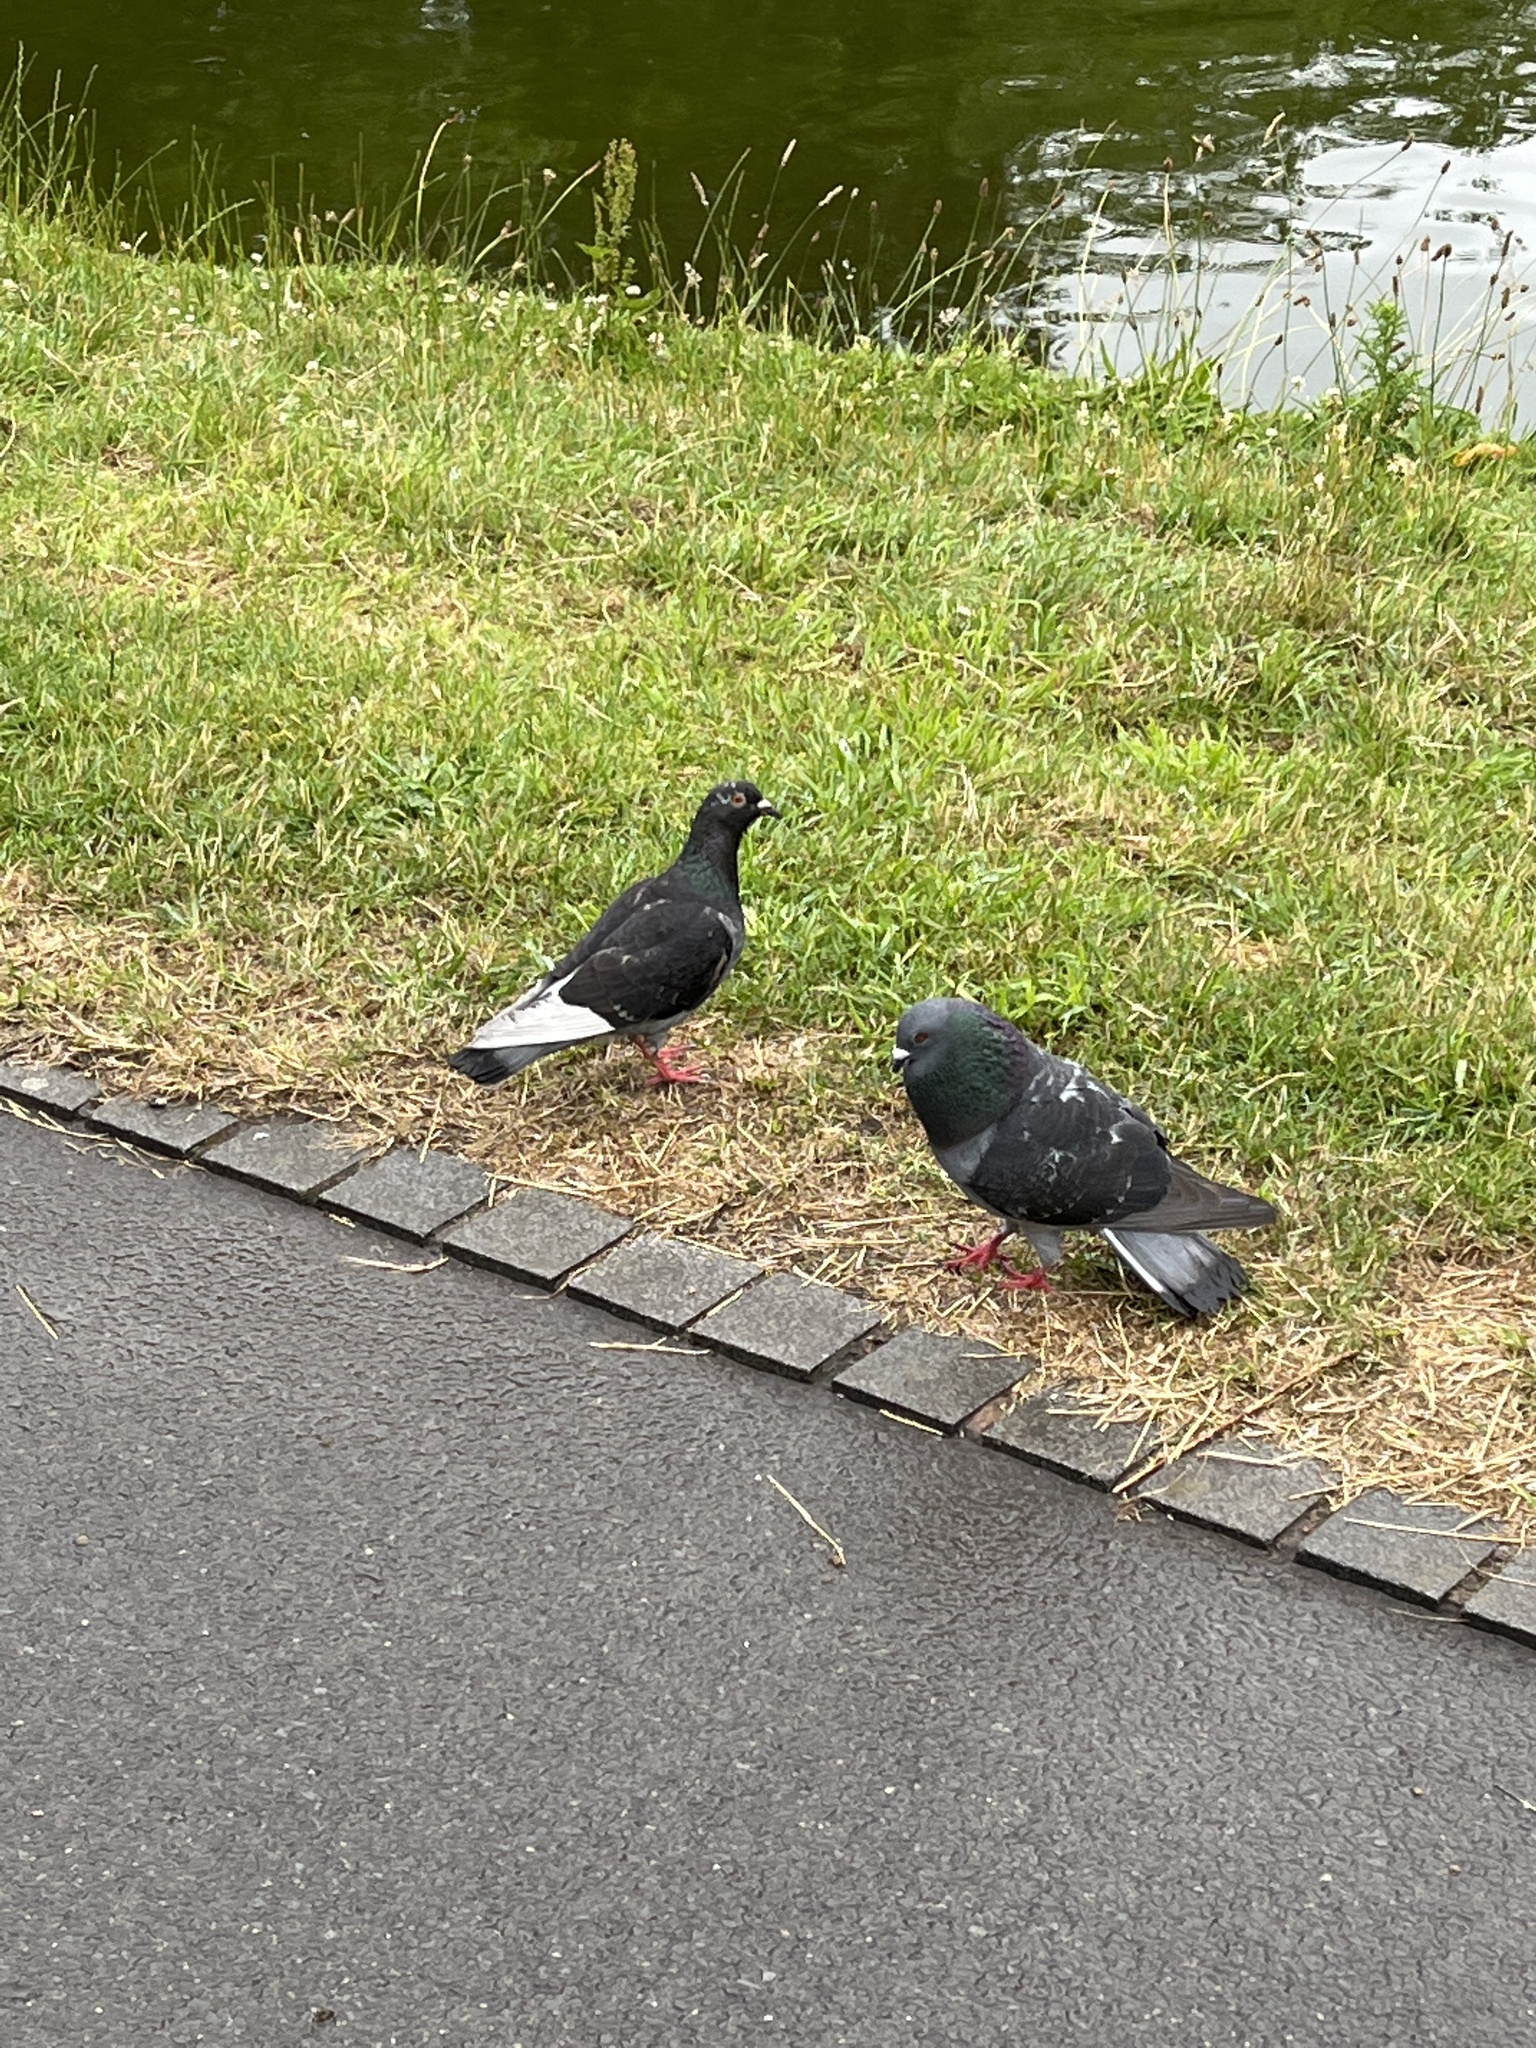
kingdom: Animalia
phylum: Chordata
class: Aves
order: Columbiformes
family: Columbidae
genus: Columba
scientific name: Columba livia
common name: Rock pigeon
